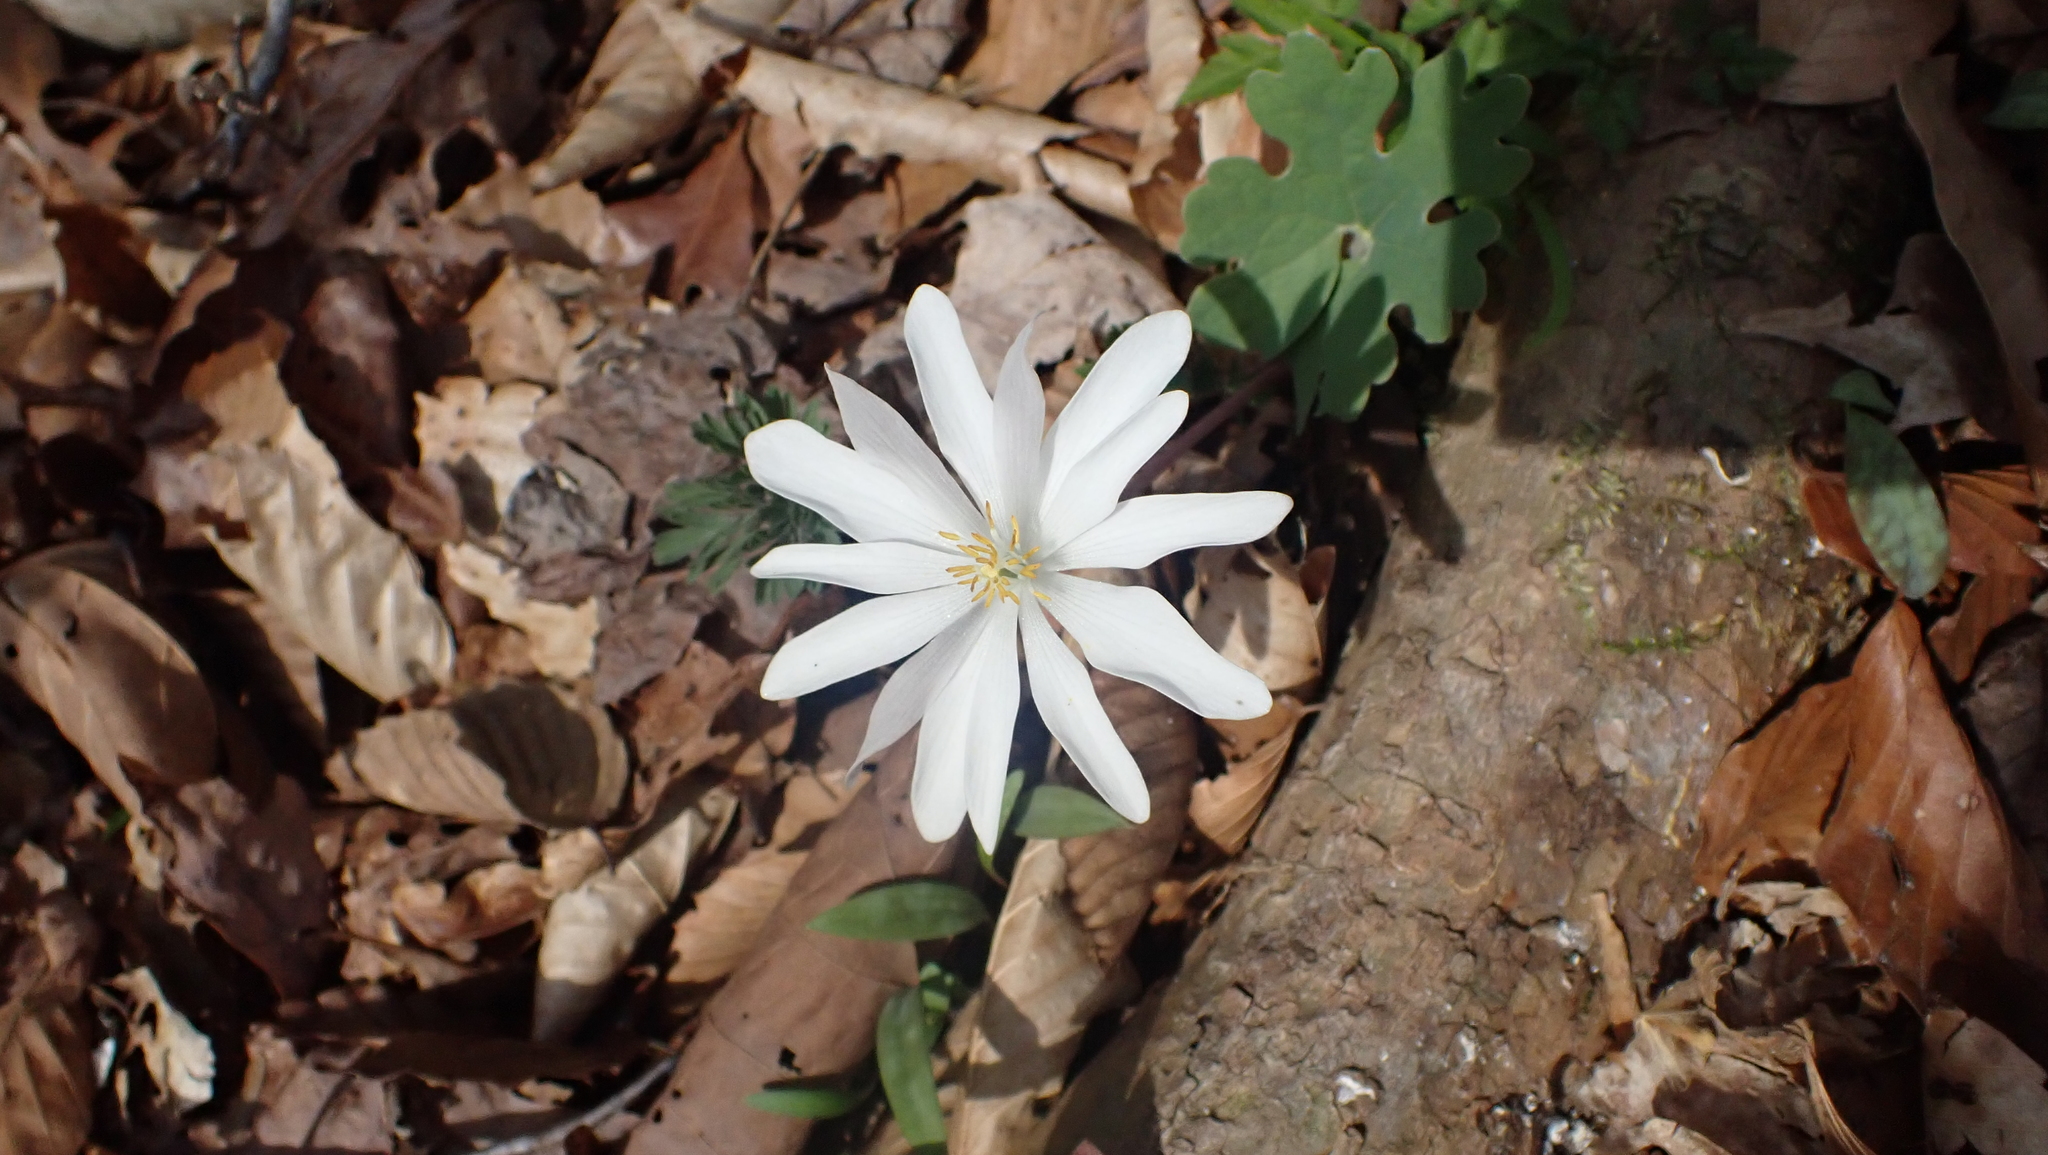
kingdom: Plantae
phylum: Tracheophyta
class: Magnoliopsida
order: Ranunculales
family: Papaveraceae
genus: Sanguinaria
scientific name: Sanguinaria canadensis
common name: Bloodroot
